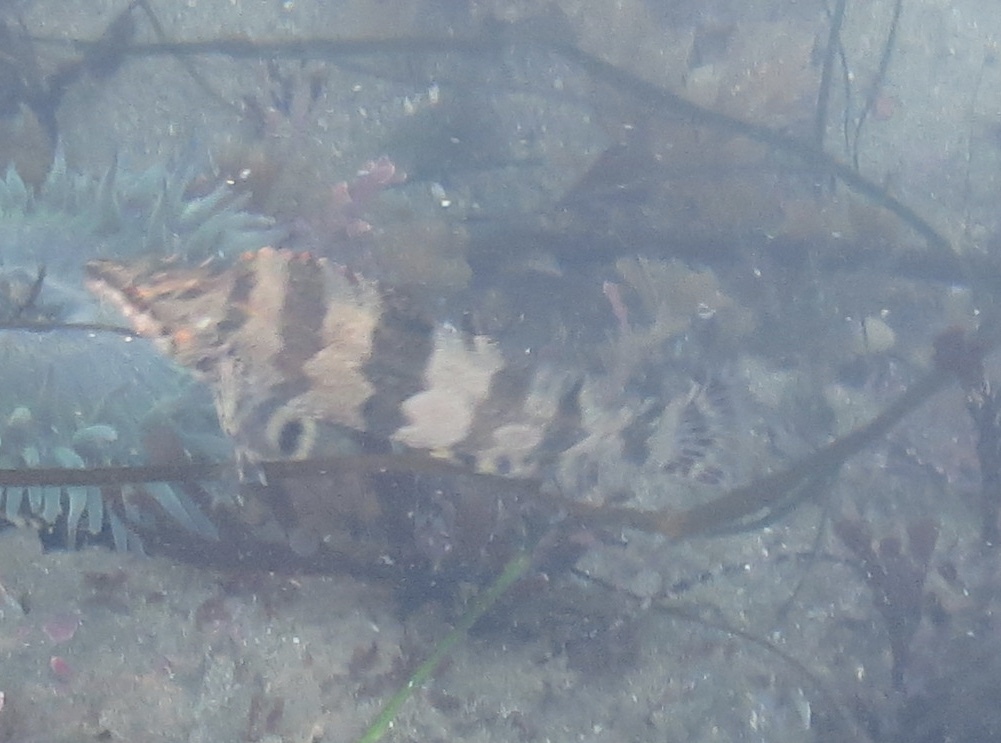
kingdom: Animalia
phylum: Chordata
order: Scorpaeniformes
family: Hexagrammidae
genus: Oxylebius
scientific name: Oxylebius pictus
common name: Painted greenling
